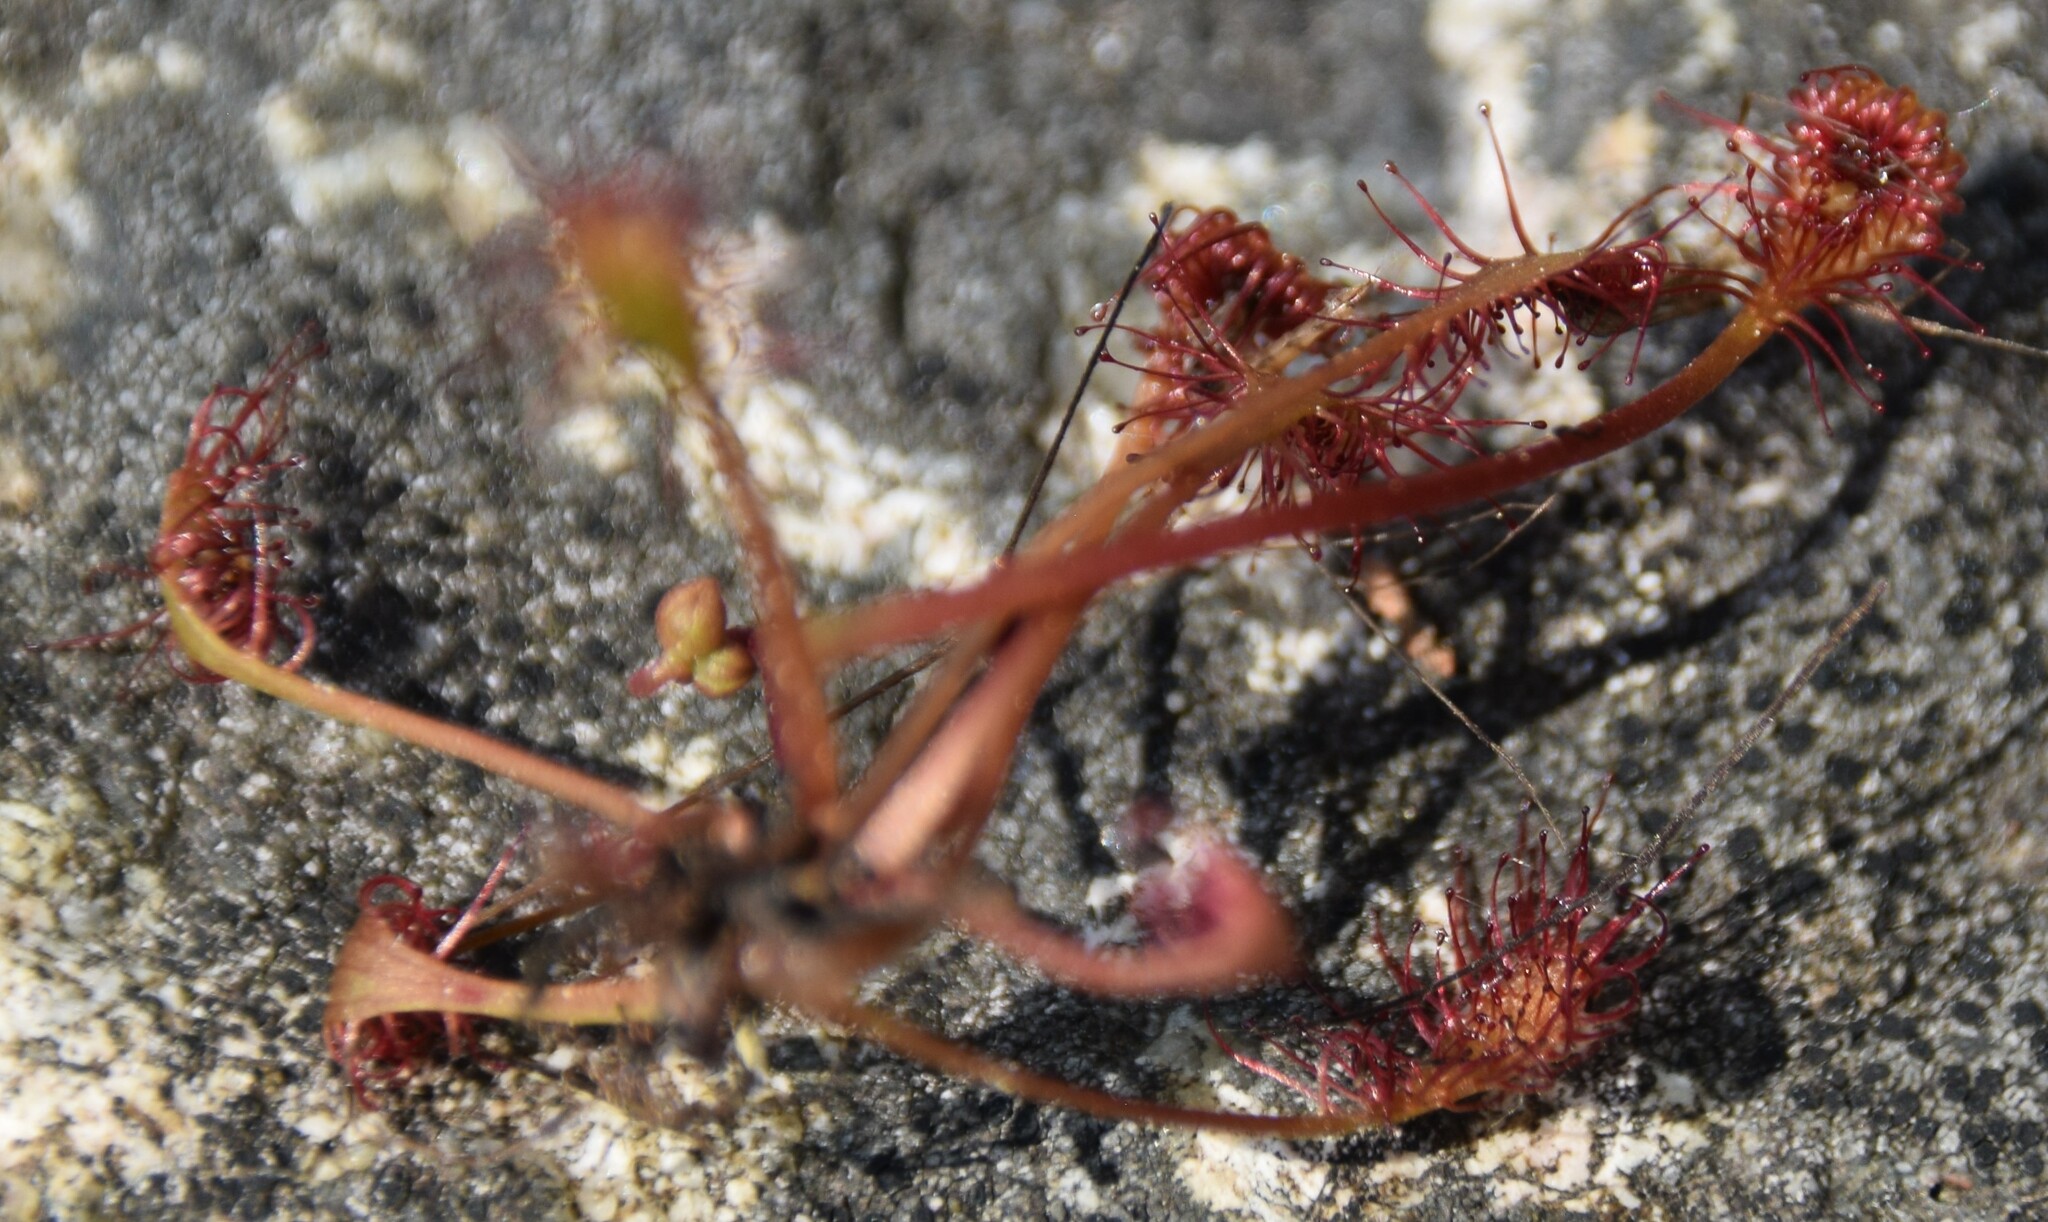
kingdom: Plantae
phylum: Tracheophyta
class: Magnoliopsida
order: Caryophyllales
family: Droseraceae
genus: Drosera
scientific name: Drosera intermedia
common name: Oblong-leaved sundew
